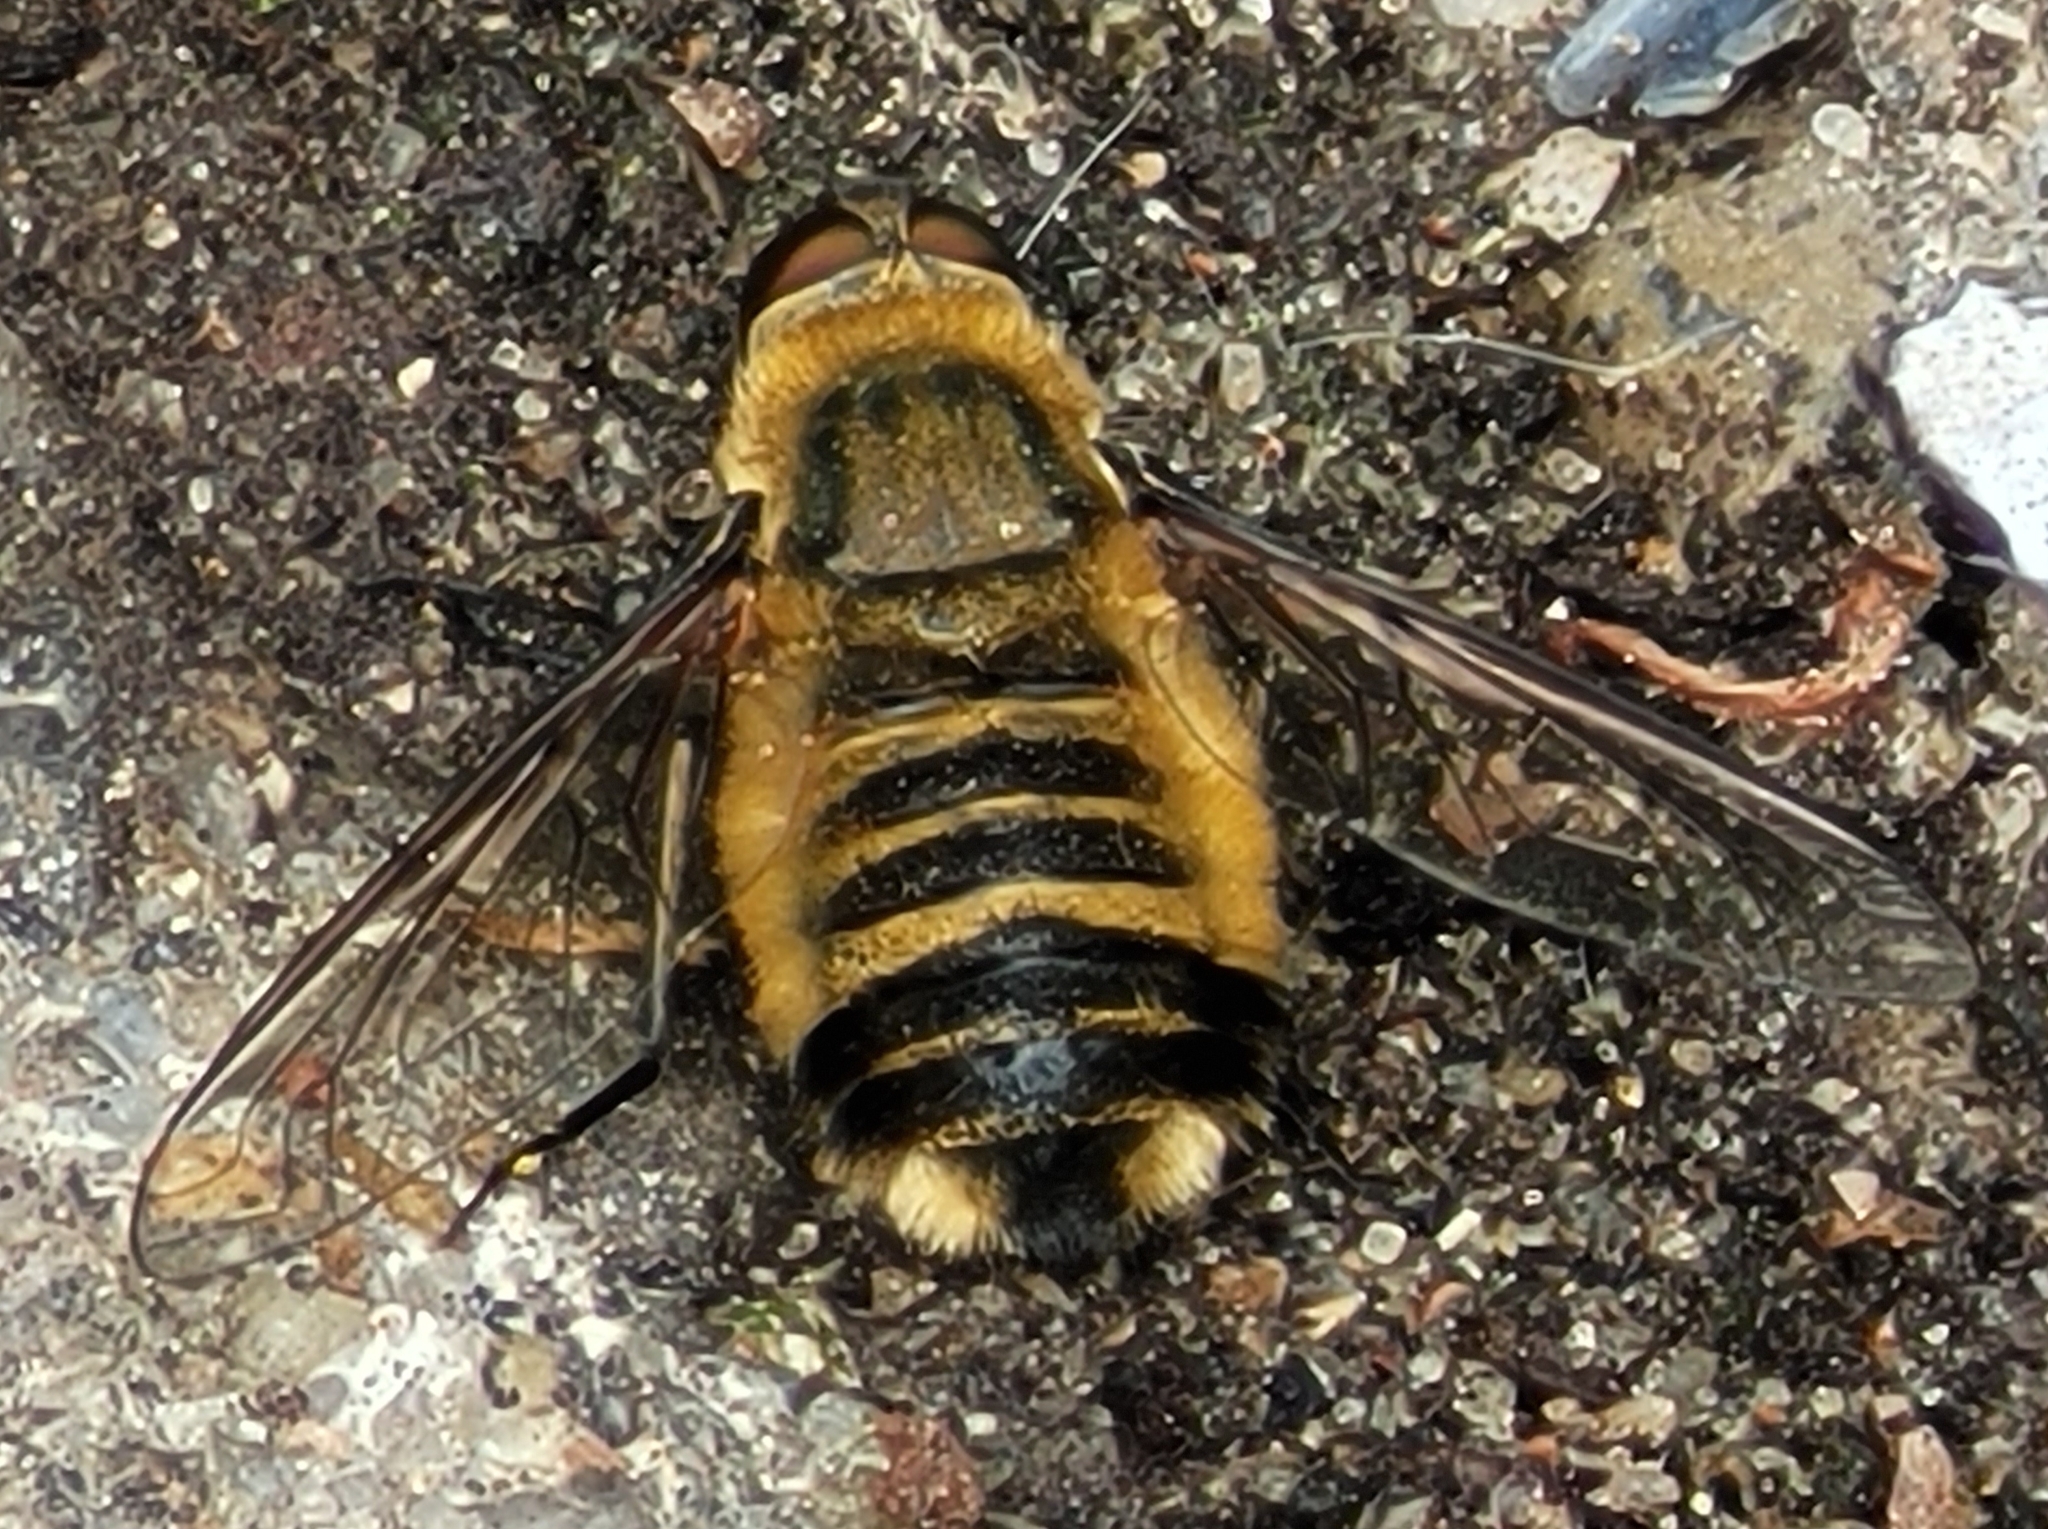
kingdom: Animalia
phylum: Arthropoda
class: Insecta
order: Diptera
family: Bombyliidae
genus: Villa
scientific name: Villa hottentotta
